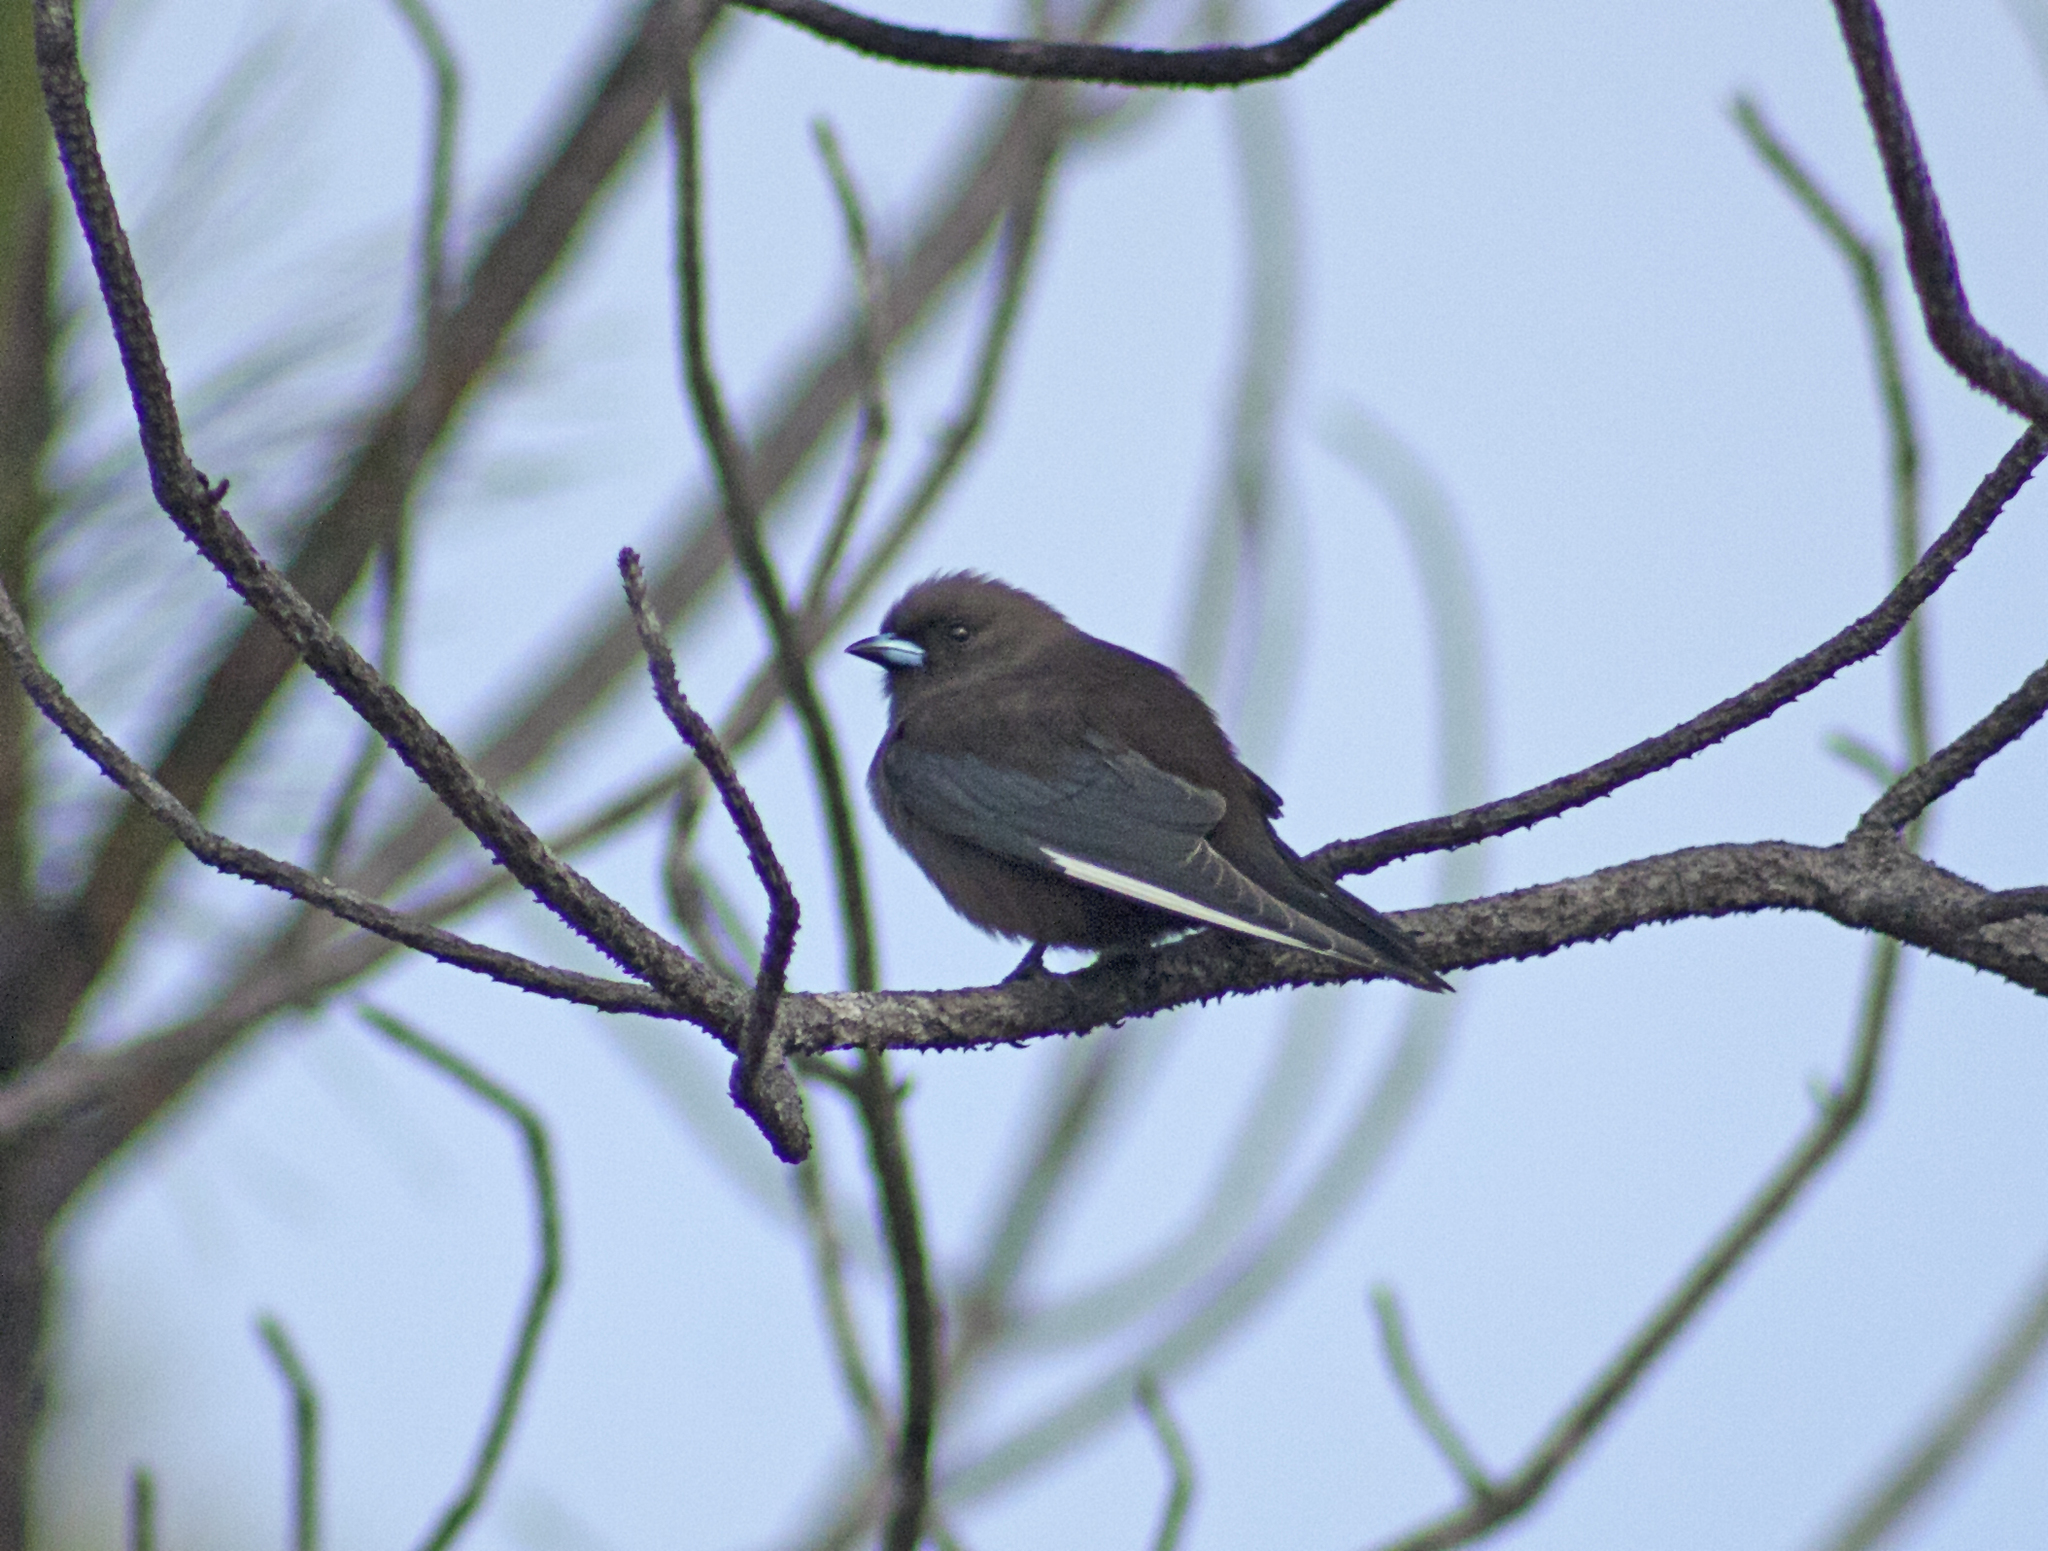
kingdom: Animalia
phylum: Chordata
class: Aves
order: Passeriformes
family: Artamidae
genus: Artamus
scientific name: Artamus cyanopterus
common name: Dusky woodswallow
